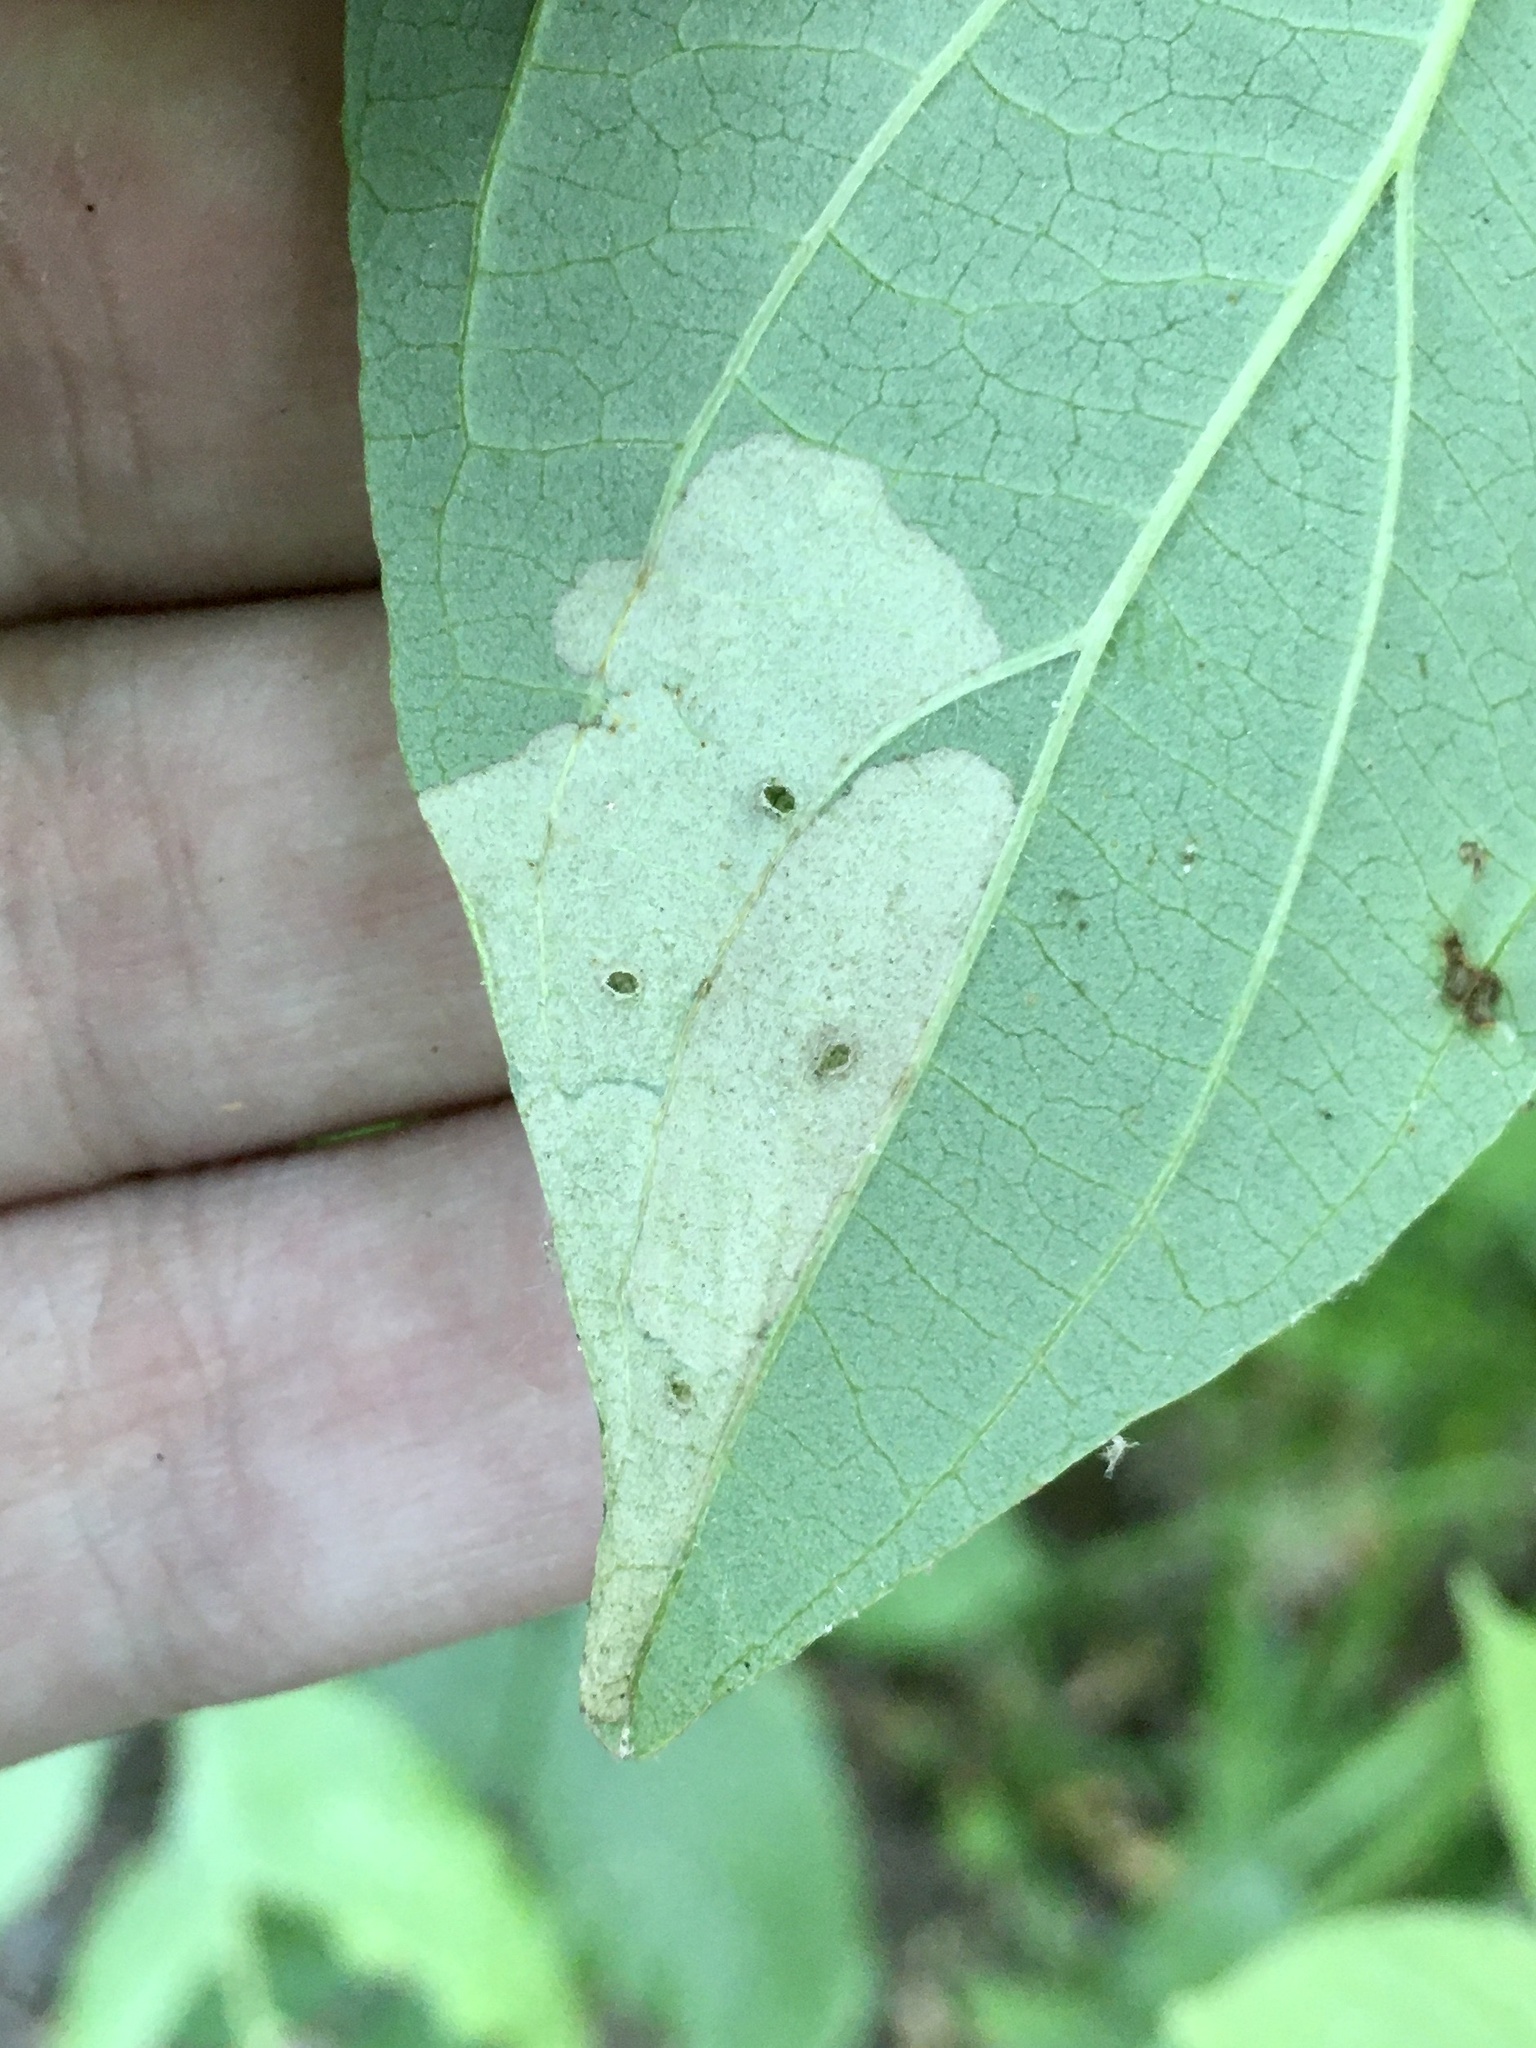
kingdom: Animalia
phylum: Arthropoda
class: Insecta
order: Lepidoptera
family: Coleophoridae
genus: Coleophora
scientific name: Coleophora cornivorella
